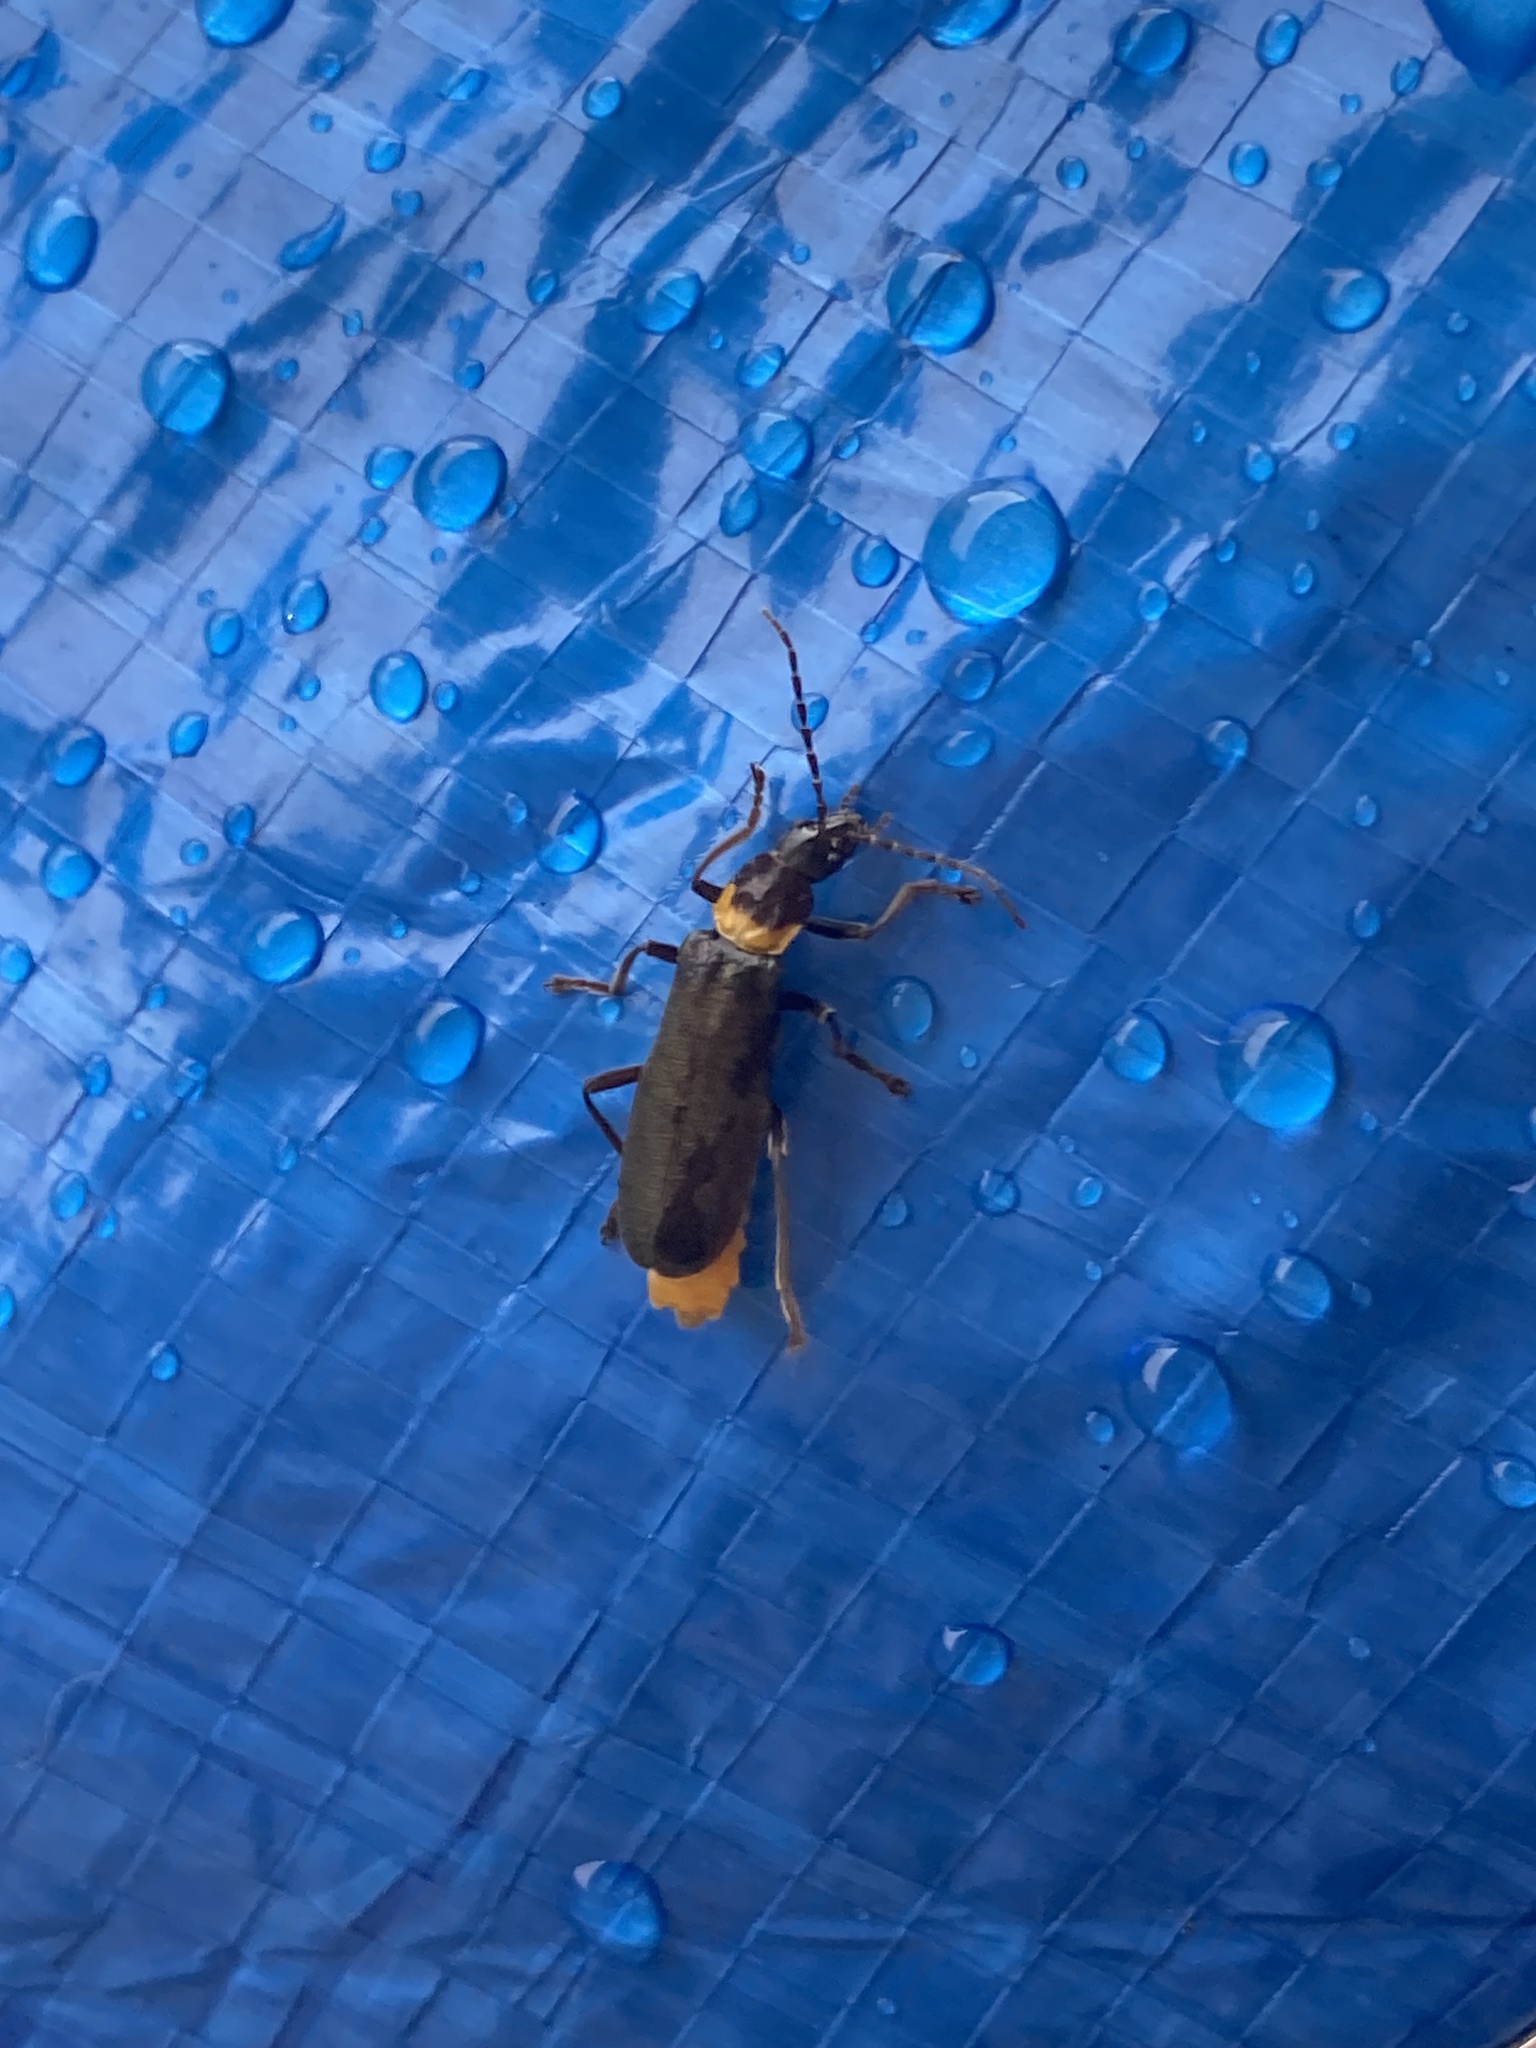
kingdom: Animalia
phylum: Arthropoda
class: Insecta
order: Coleoptera
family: Cantharidae
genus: Chauliognathus
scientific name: Chauliognathus
